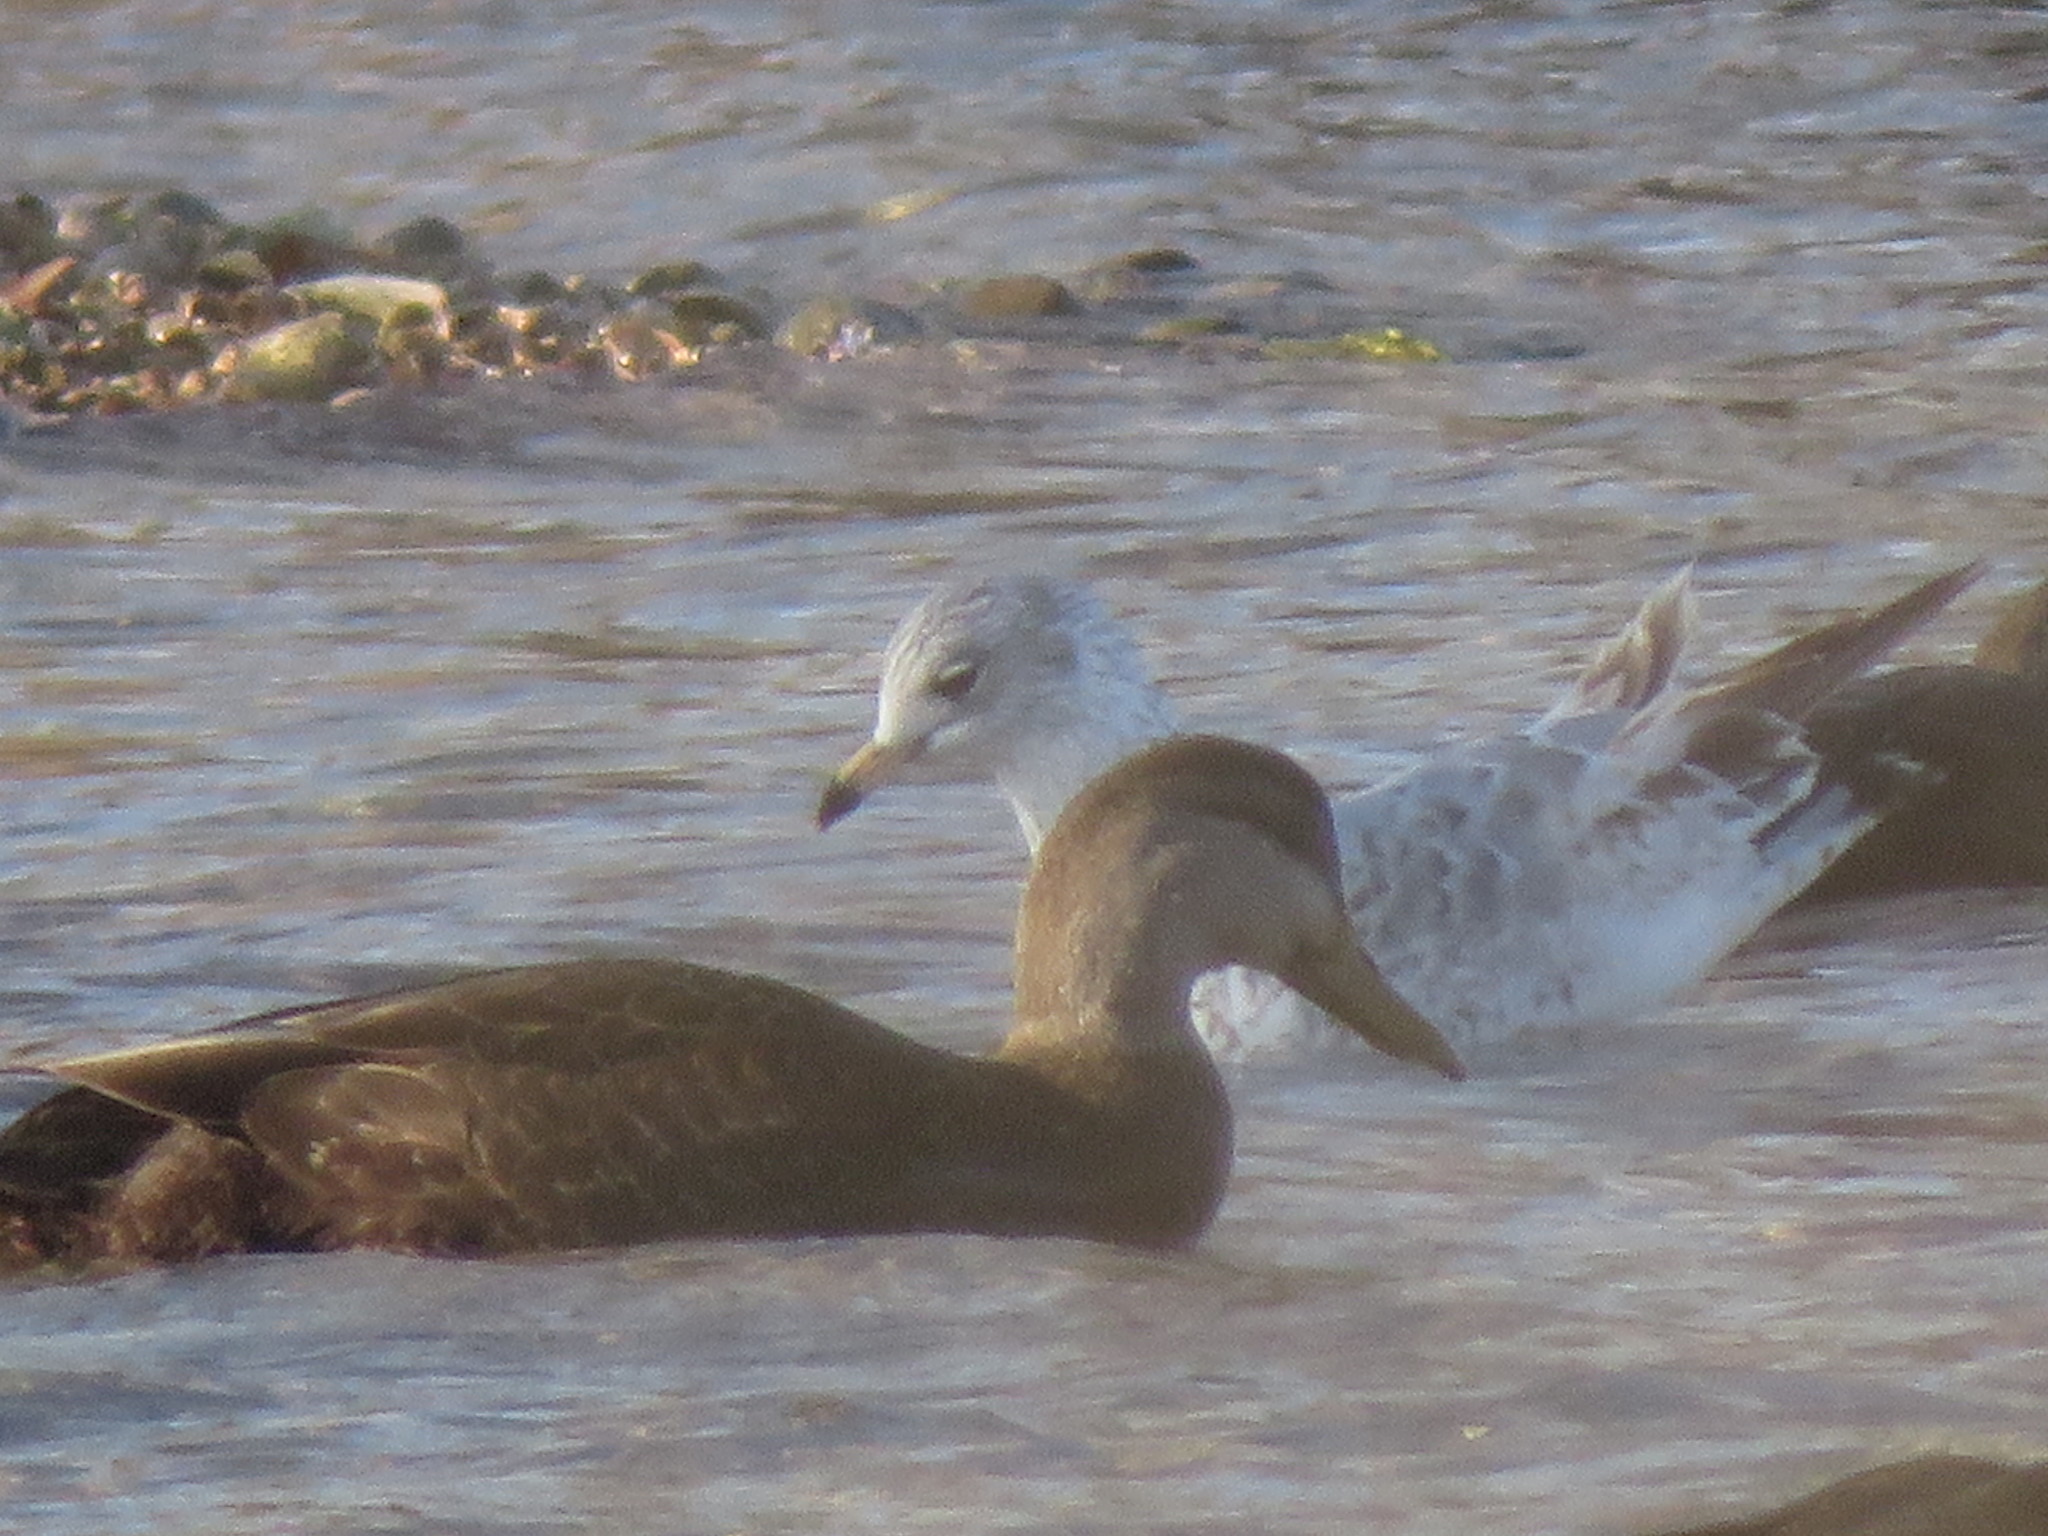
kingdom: Animalia
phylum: Chordata
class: Aves
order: Anseriformes
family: Anatidae
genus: Anas
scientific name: Anas rubripes
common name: American black duck
